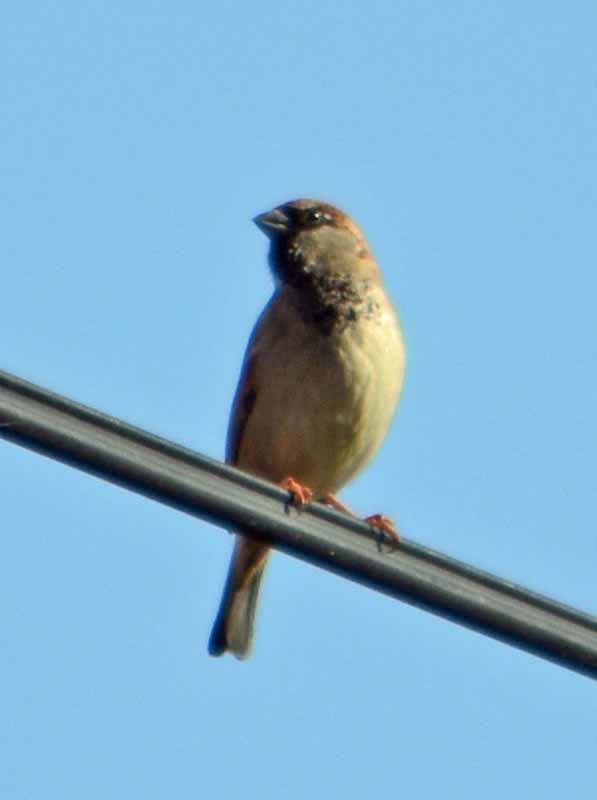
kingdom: Animalia
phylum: Chordata
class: Aves
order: Passeriformes
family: Passeridae
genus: Passer
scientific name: Passer domesticus
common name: House sparrow
